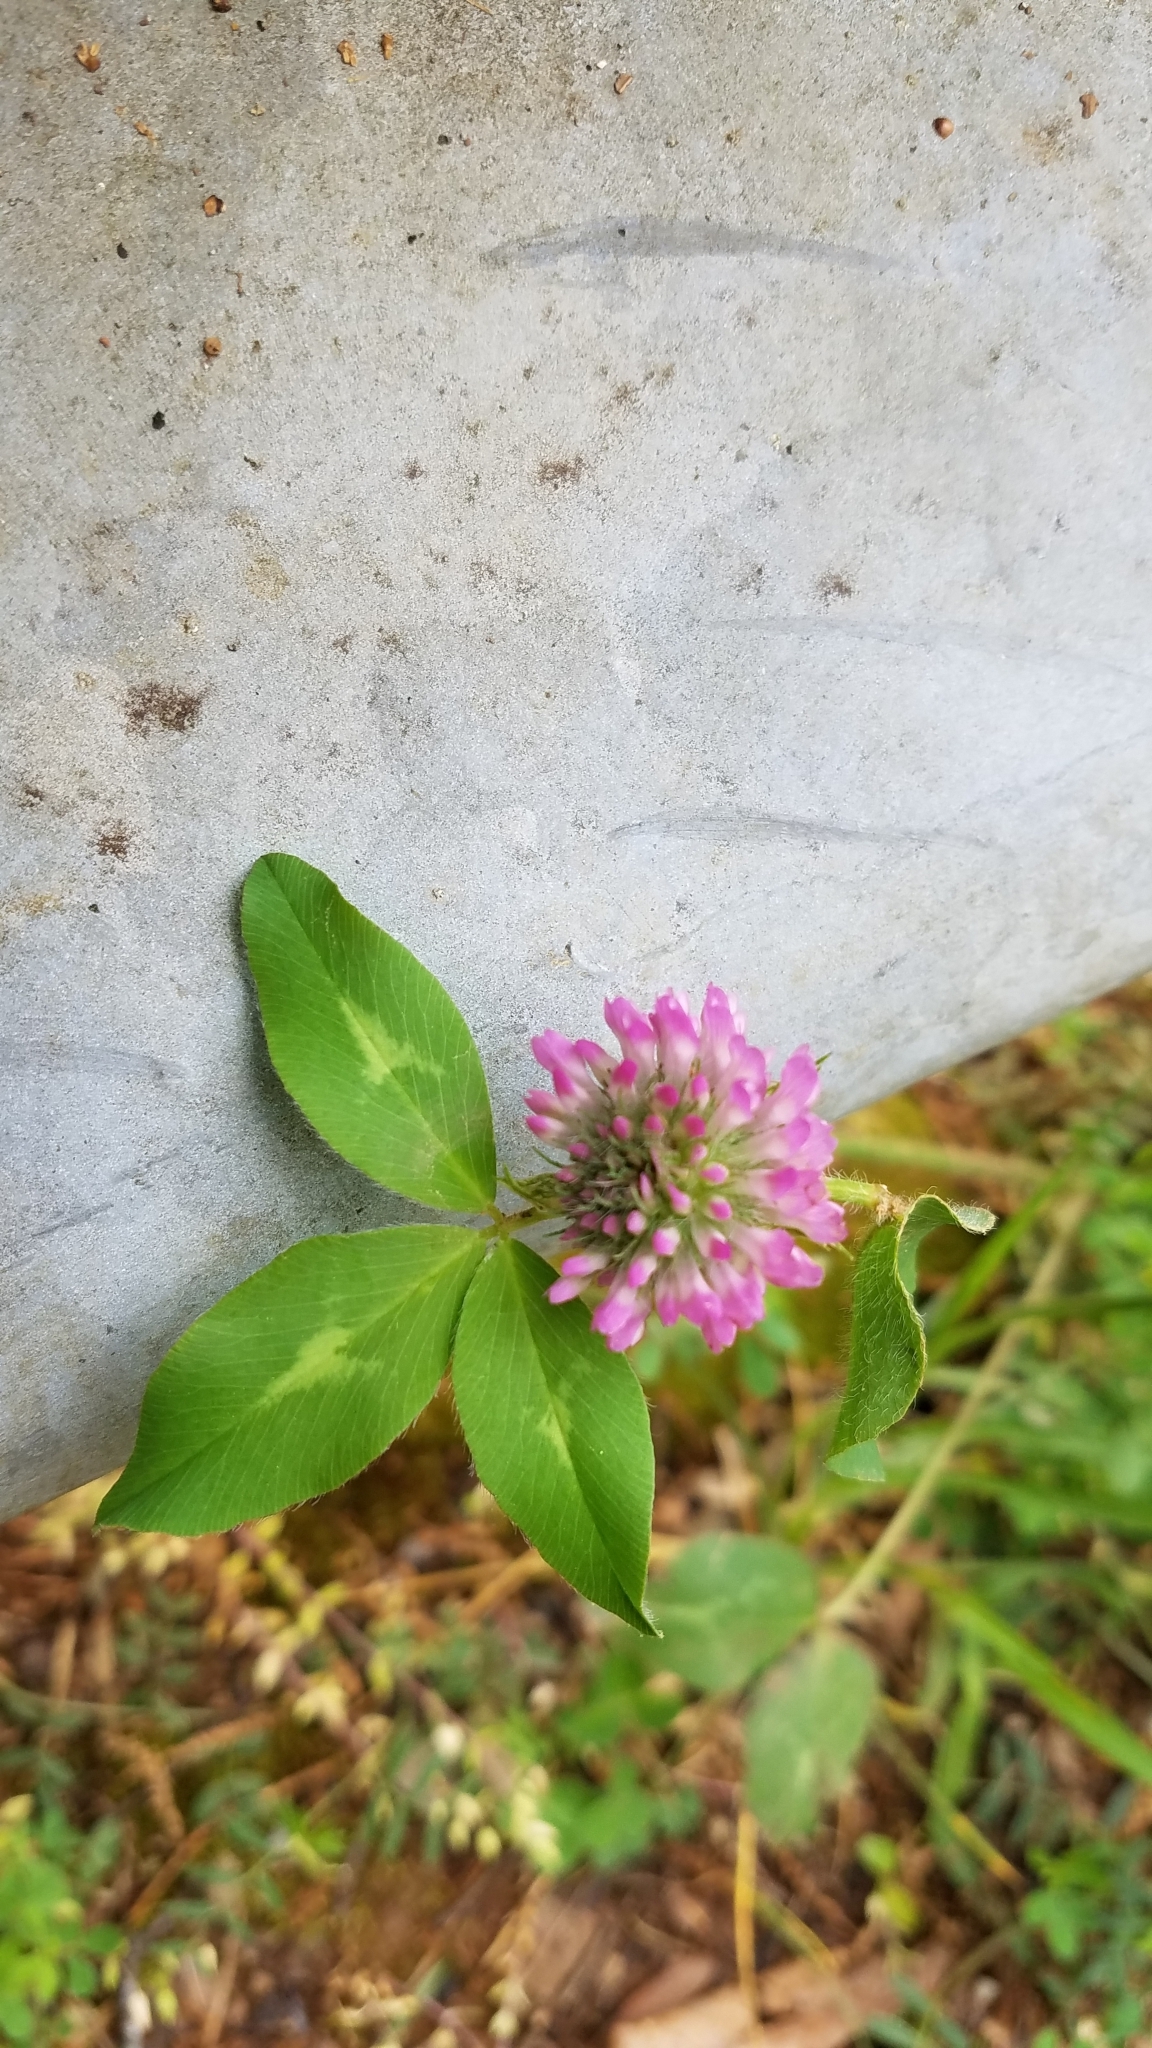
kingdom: Plantae
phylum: Tracheophyta
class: Magnoliopsida
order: Fabales
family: Fabaceae
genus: Trifolium
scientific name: Trifolium pratense
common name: Red clover
